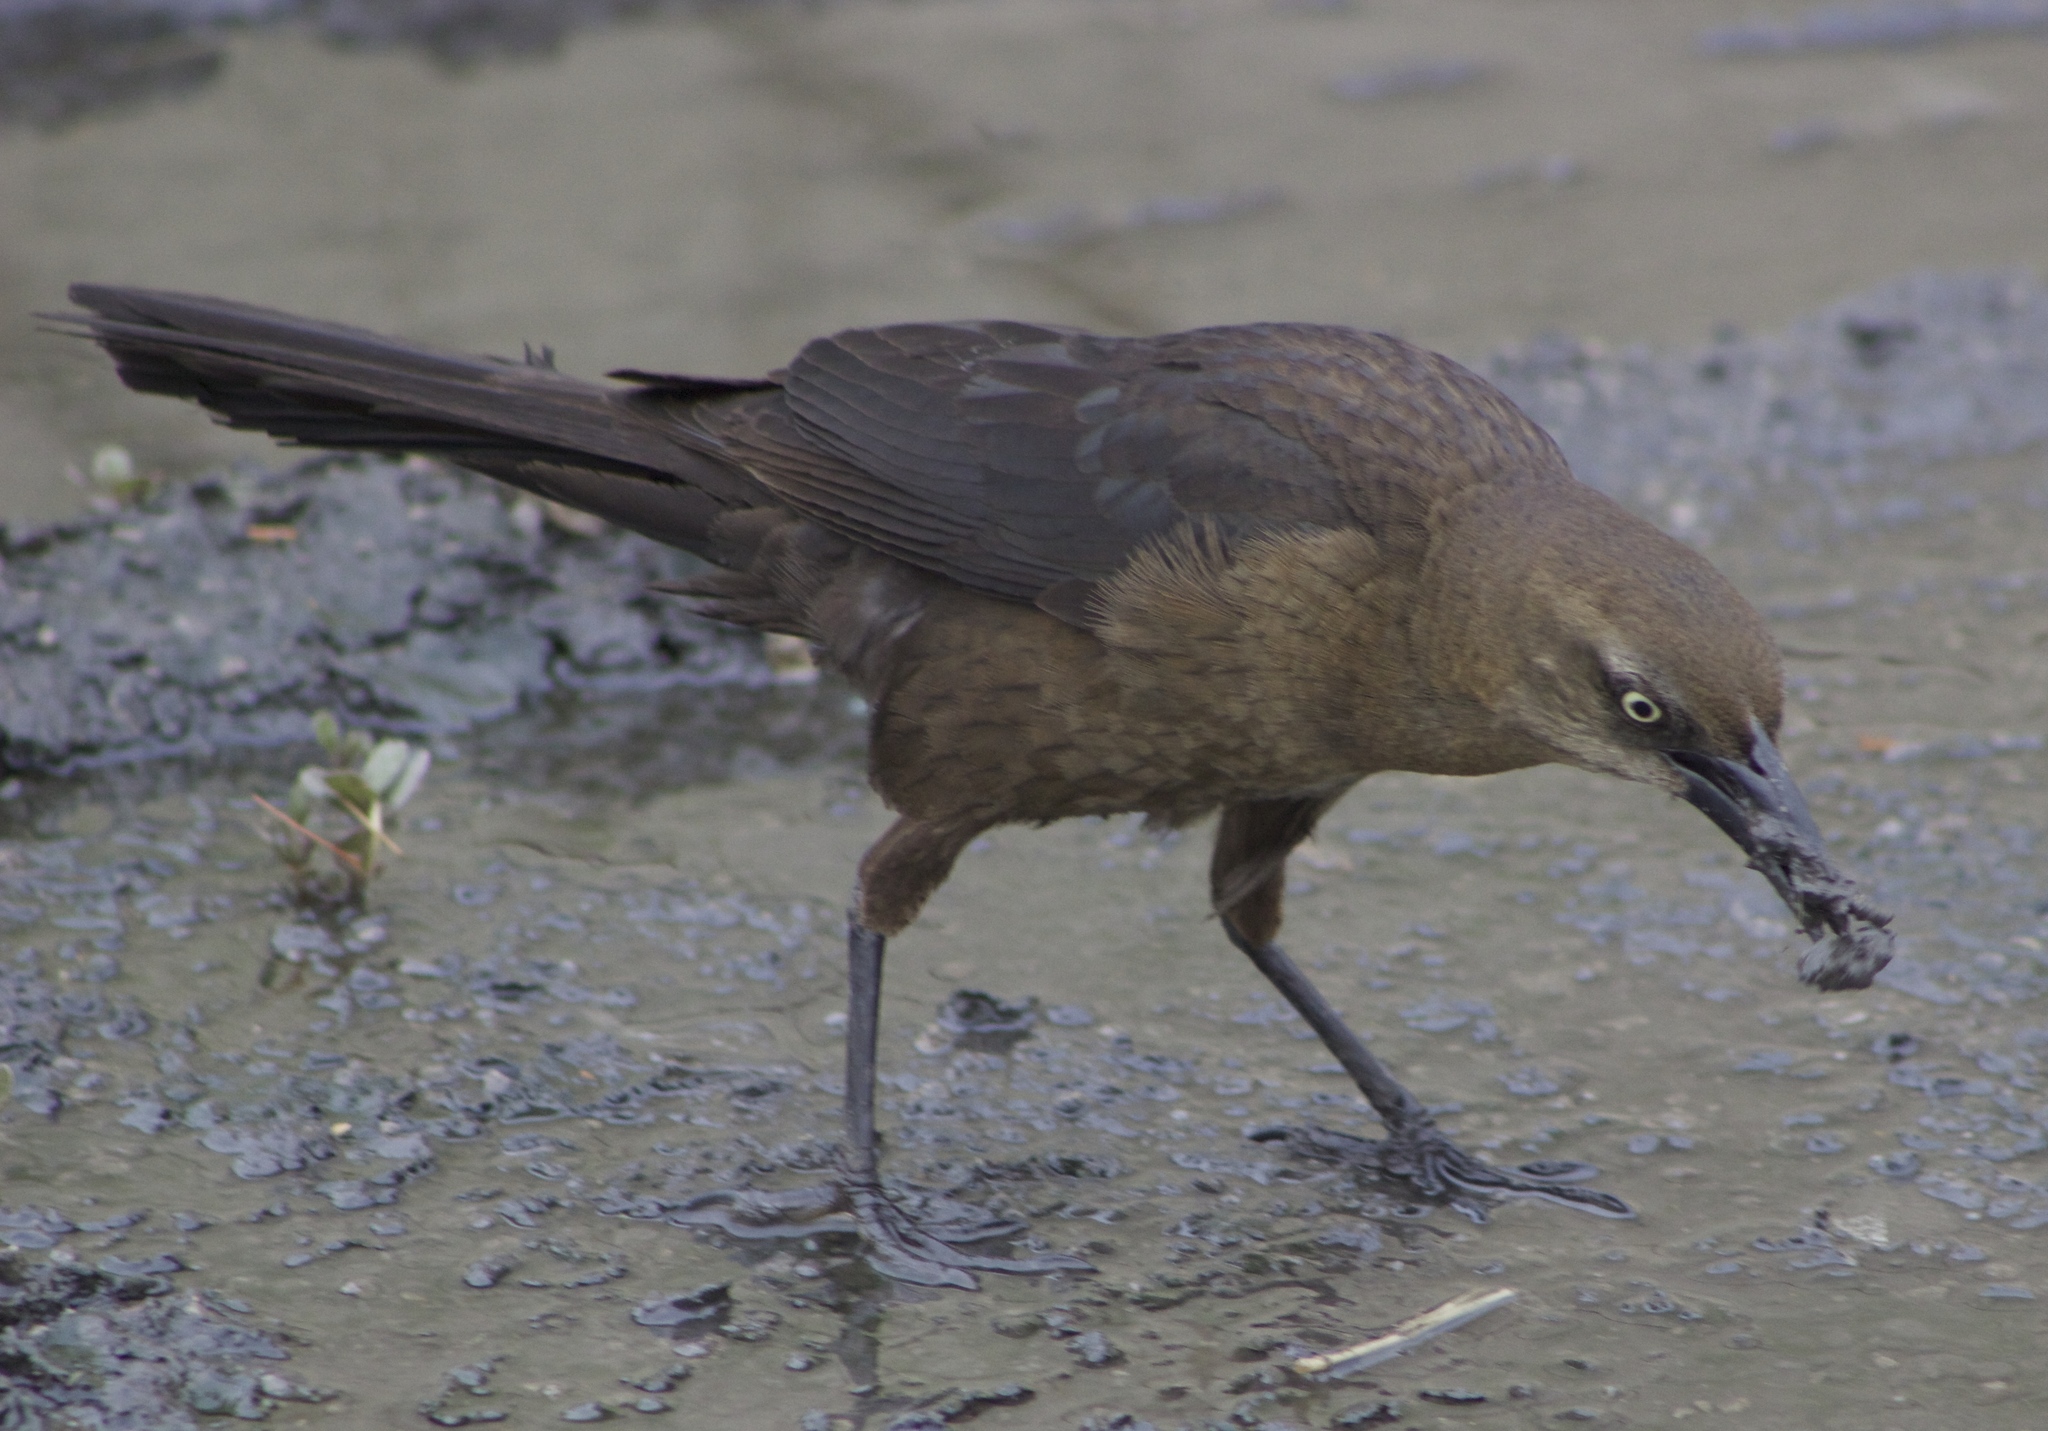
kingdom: Animalia
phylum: Chordata
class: Aves
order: Passeriformes
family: Icteridae
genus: Quiscalus
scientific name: Quiscalus mexicanus
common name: Great-tailed grackle
